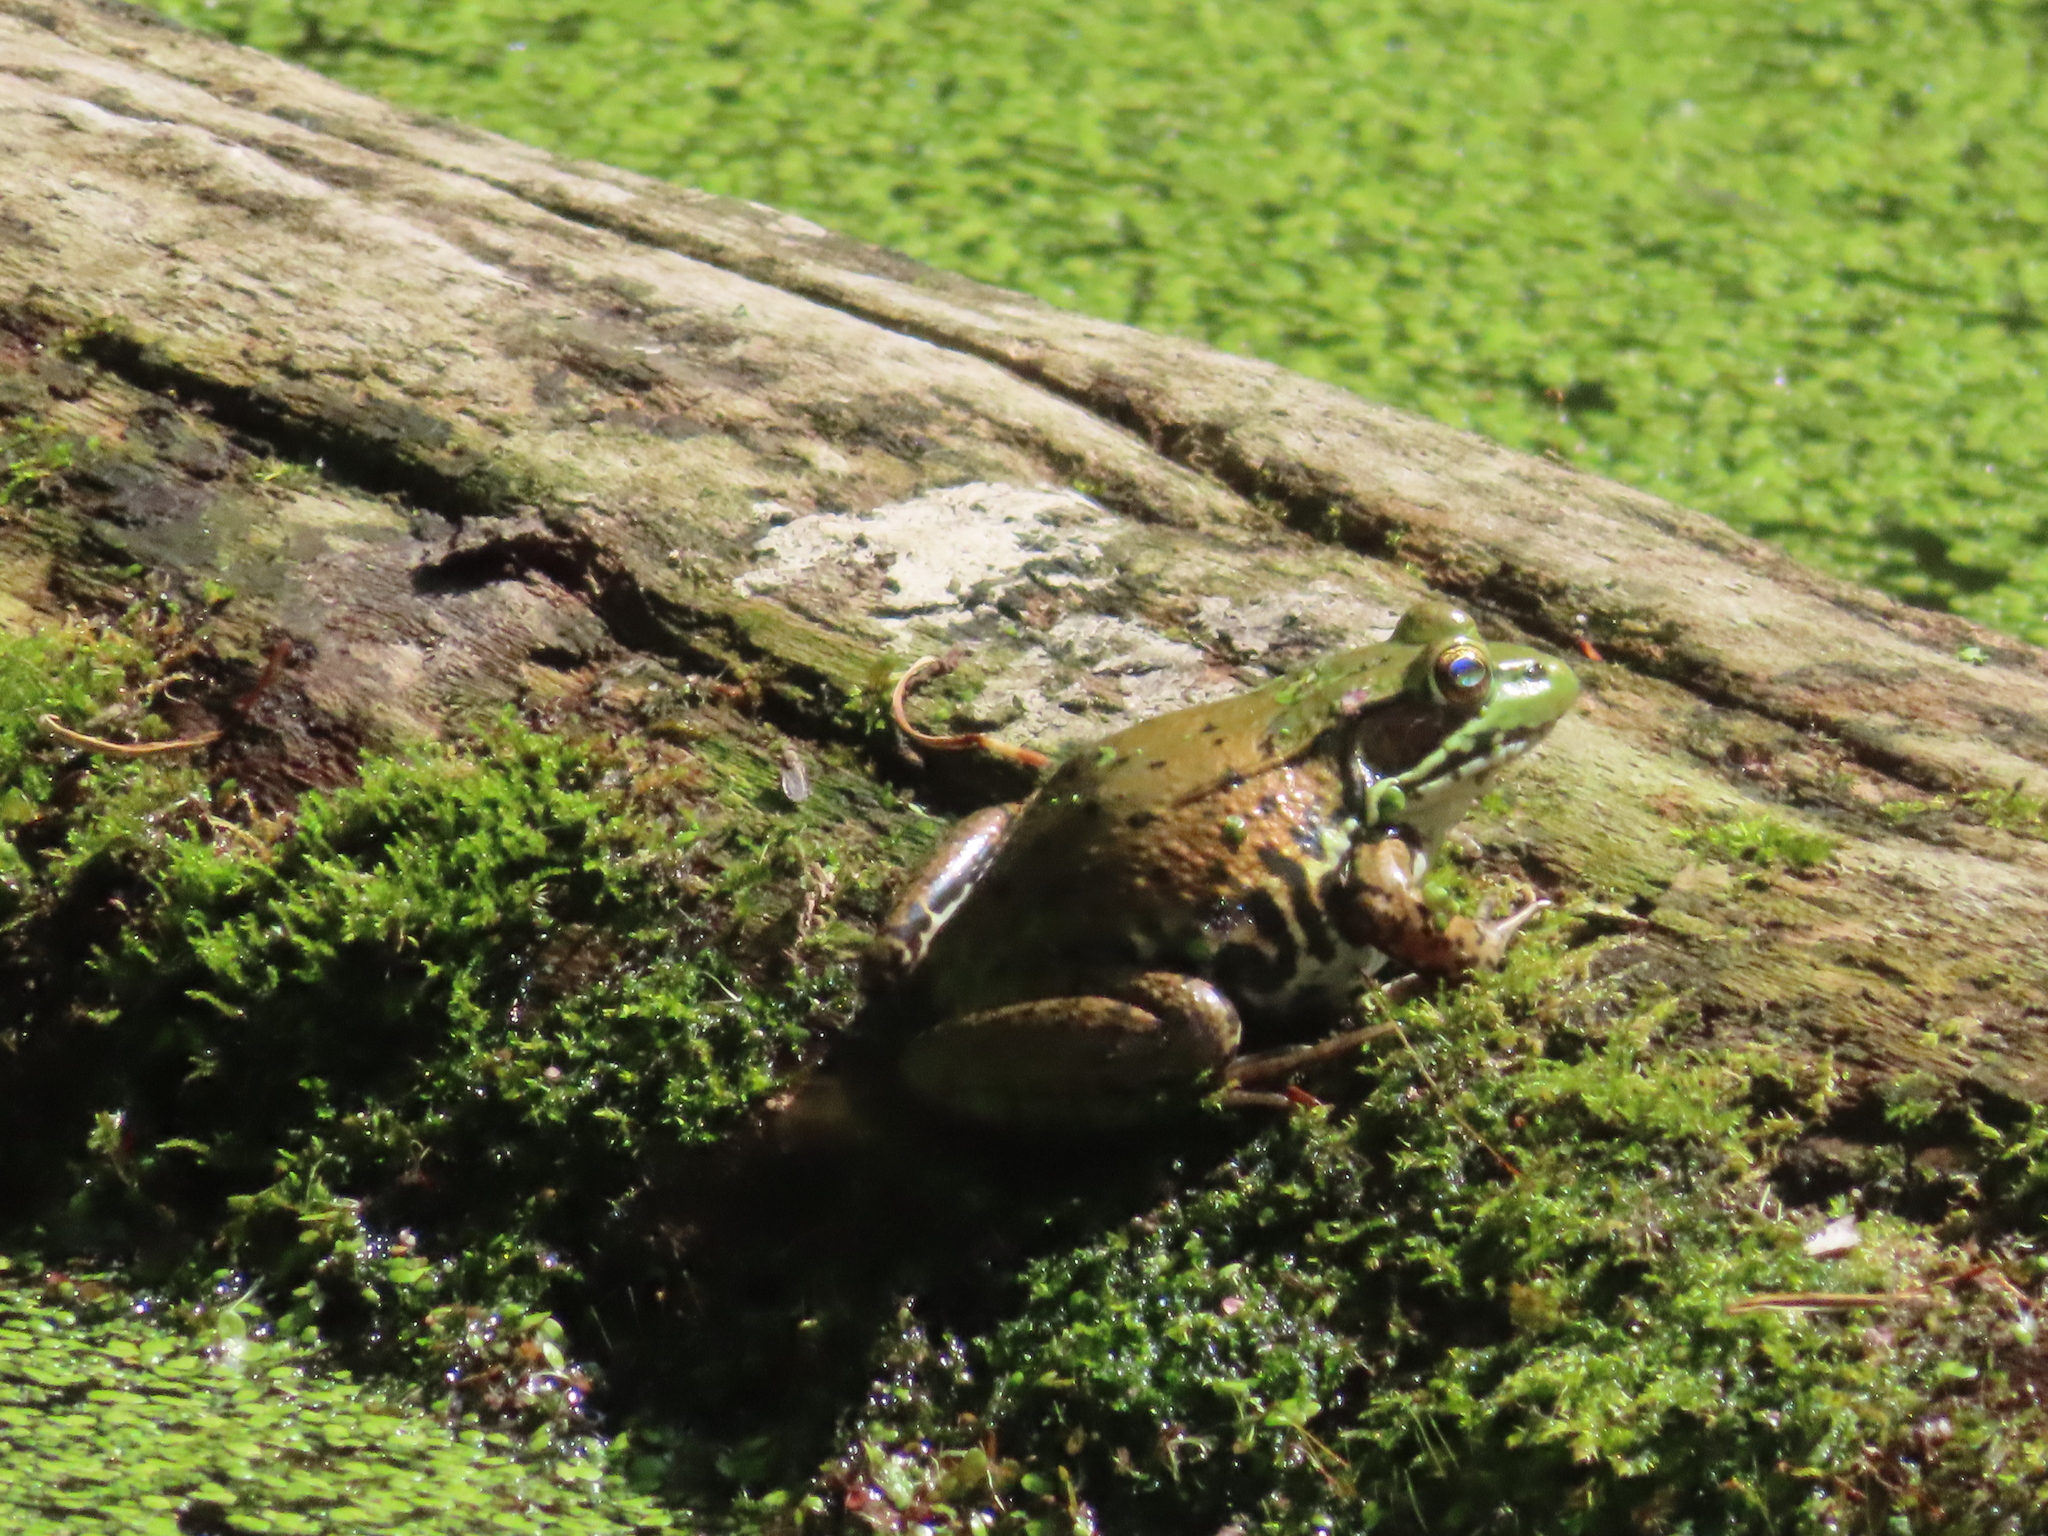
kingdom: Animalia
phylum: Chordata
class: Amphibia
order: Anura
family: Ranidae
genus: Lithobates
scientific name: Lithobates clamitans
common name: Green frog
